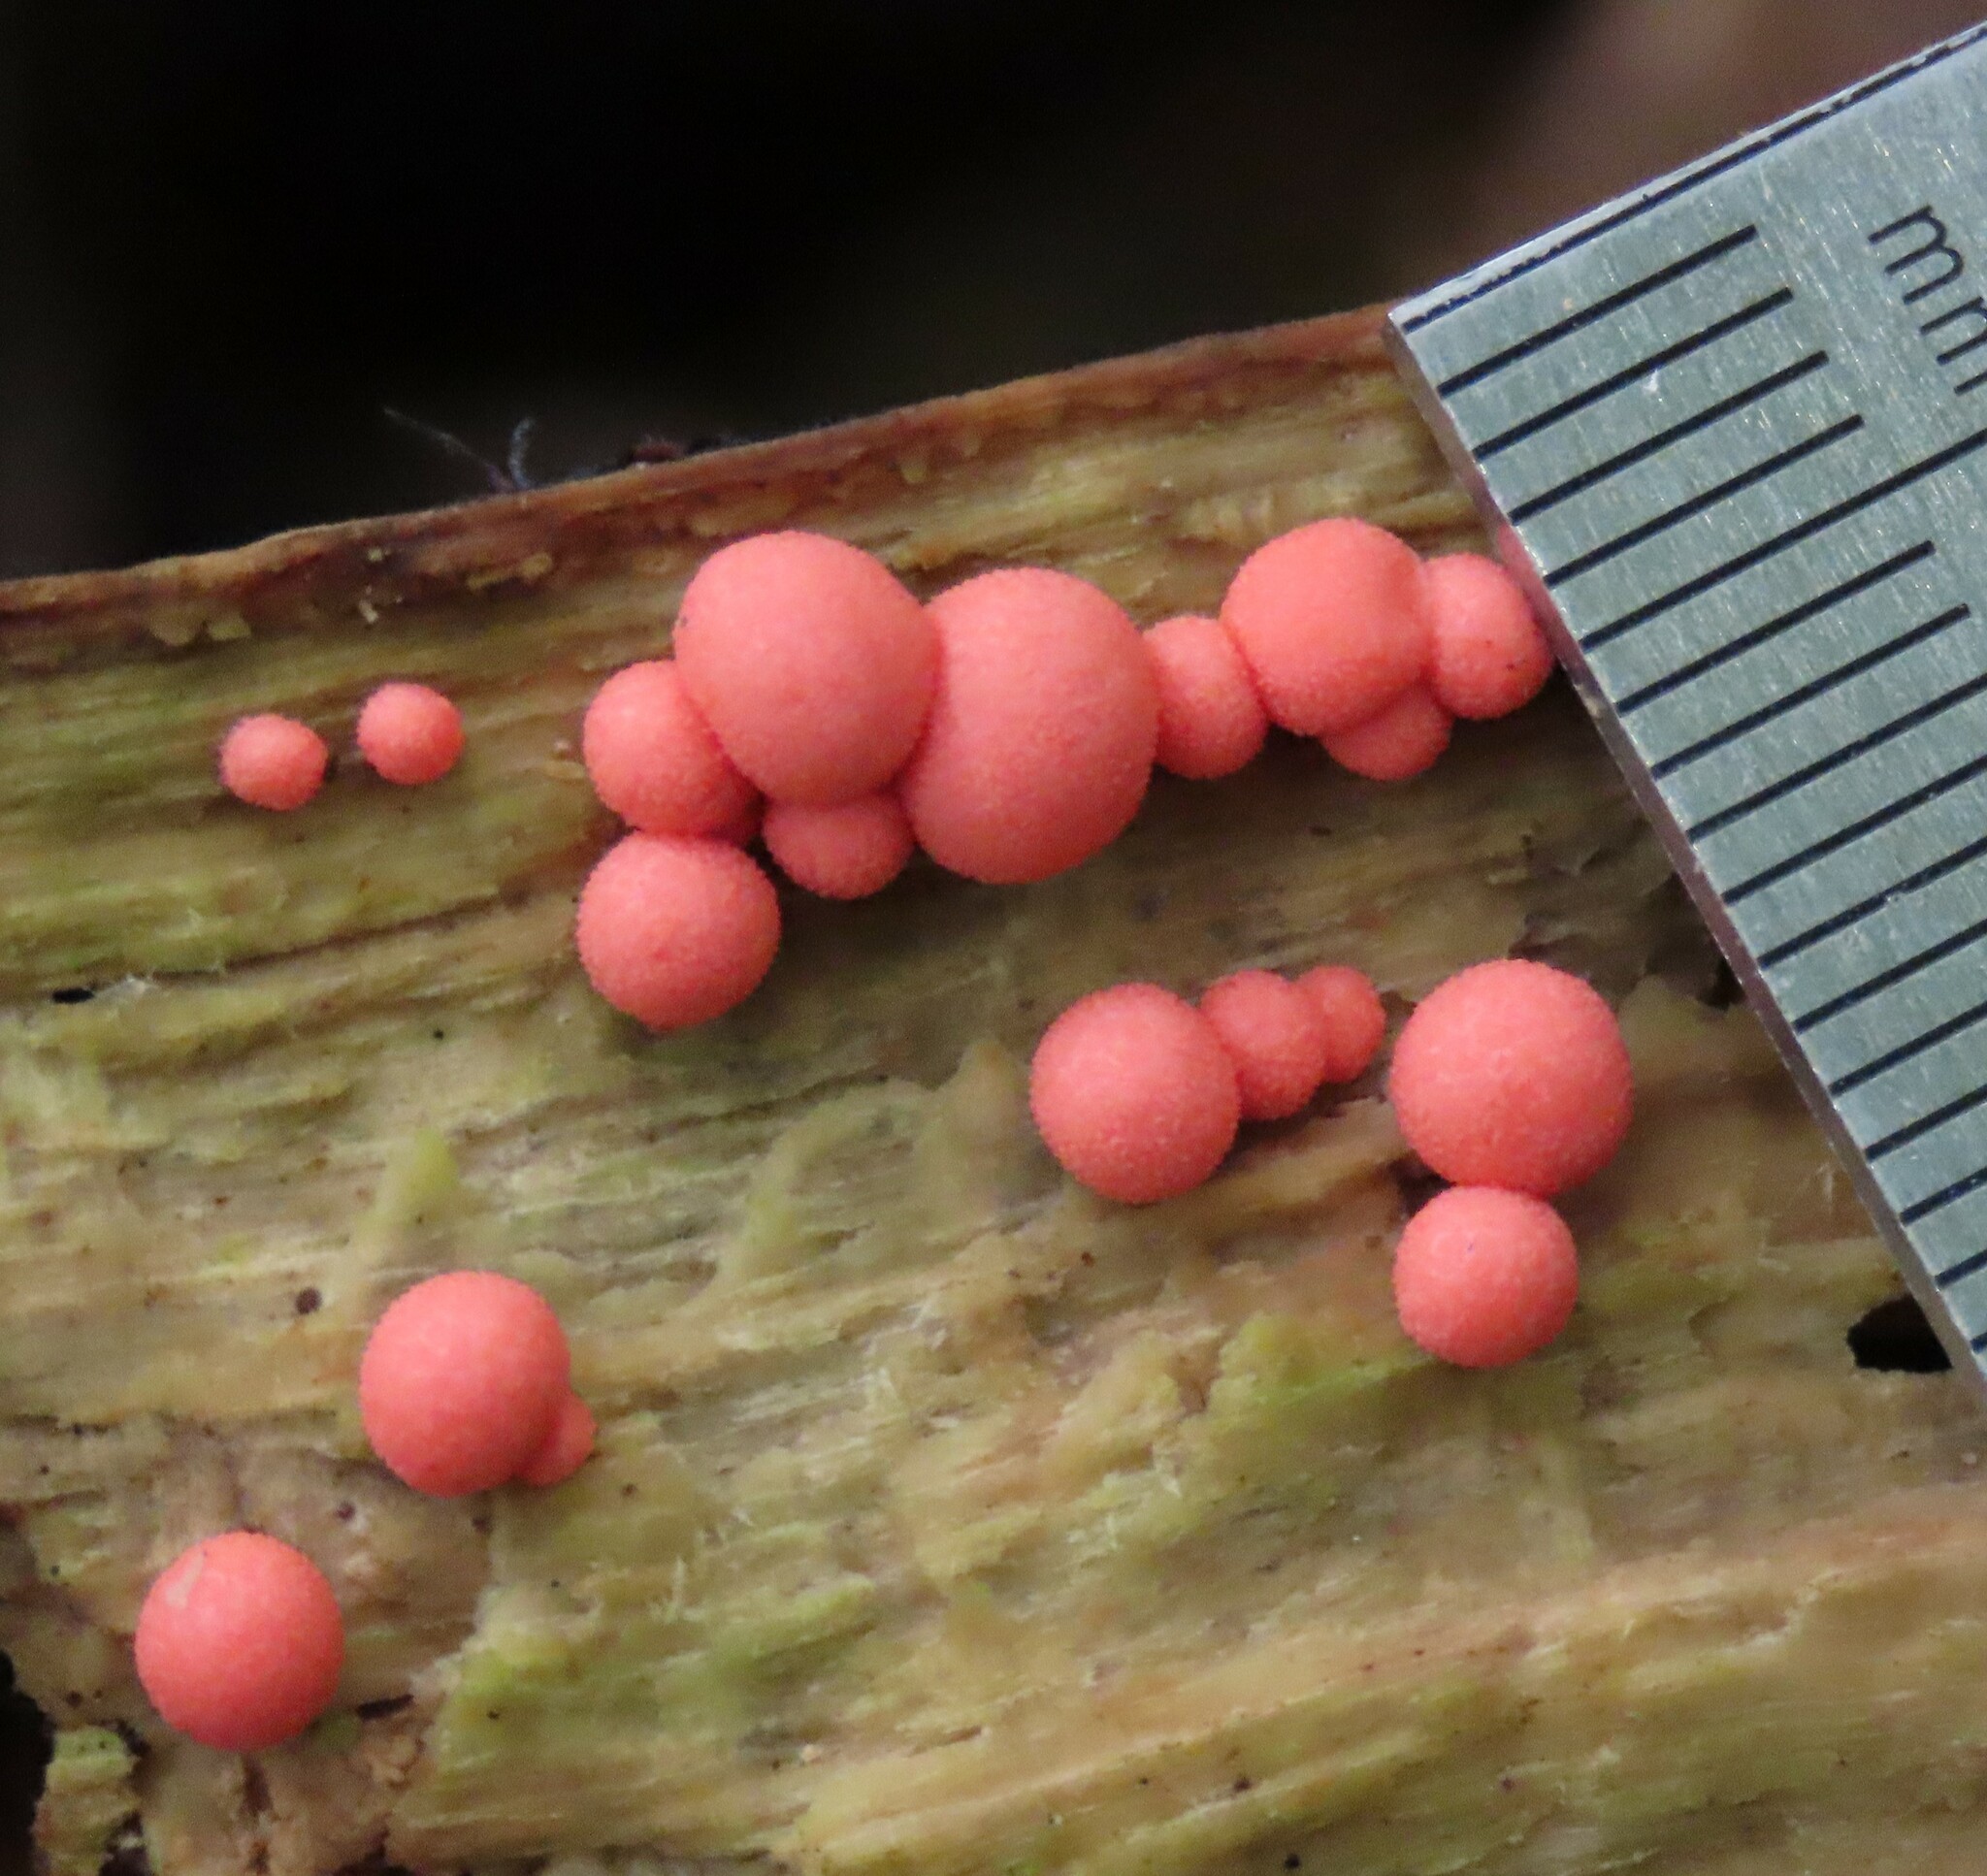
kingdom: Protozoa
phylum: Mycetozoa
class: Myxomycetes
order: Cribrariales
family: Tubiferaceae
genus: Lycogala
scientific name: Lycogala epidendrum
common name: Wolf's milk
